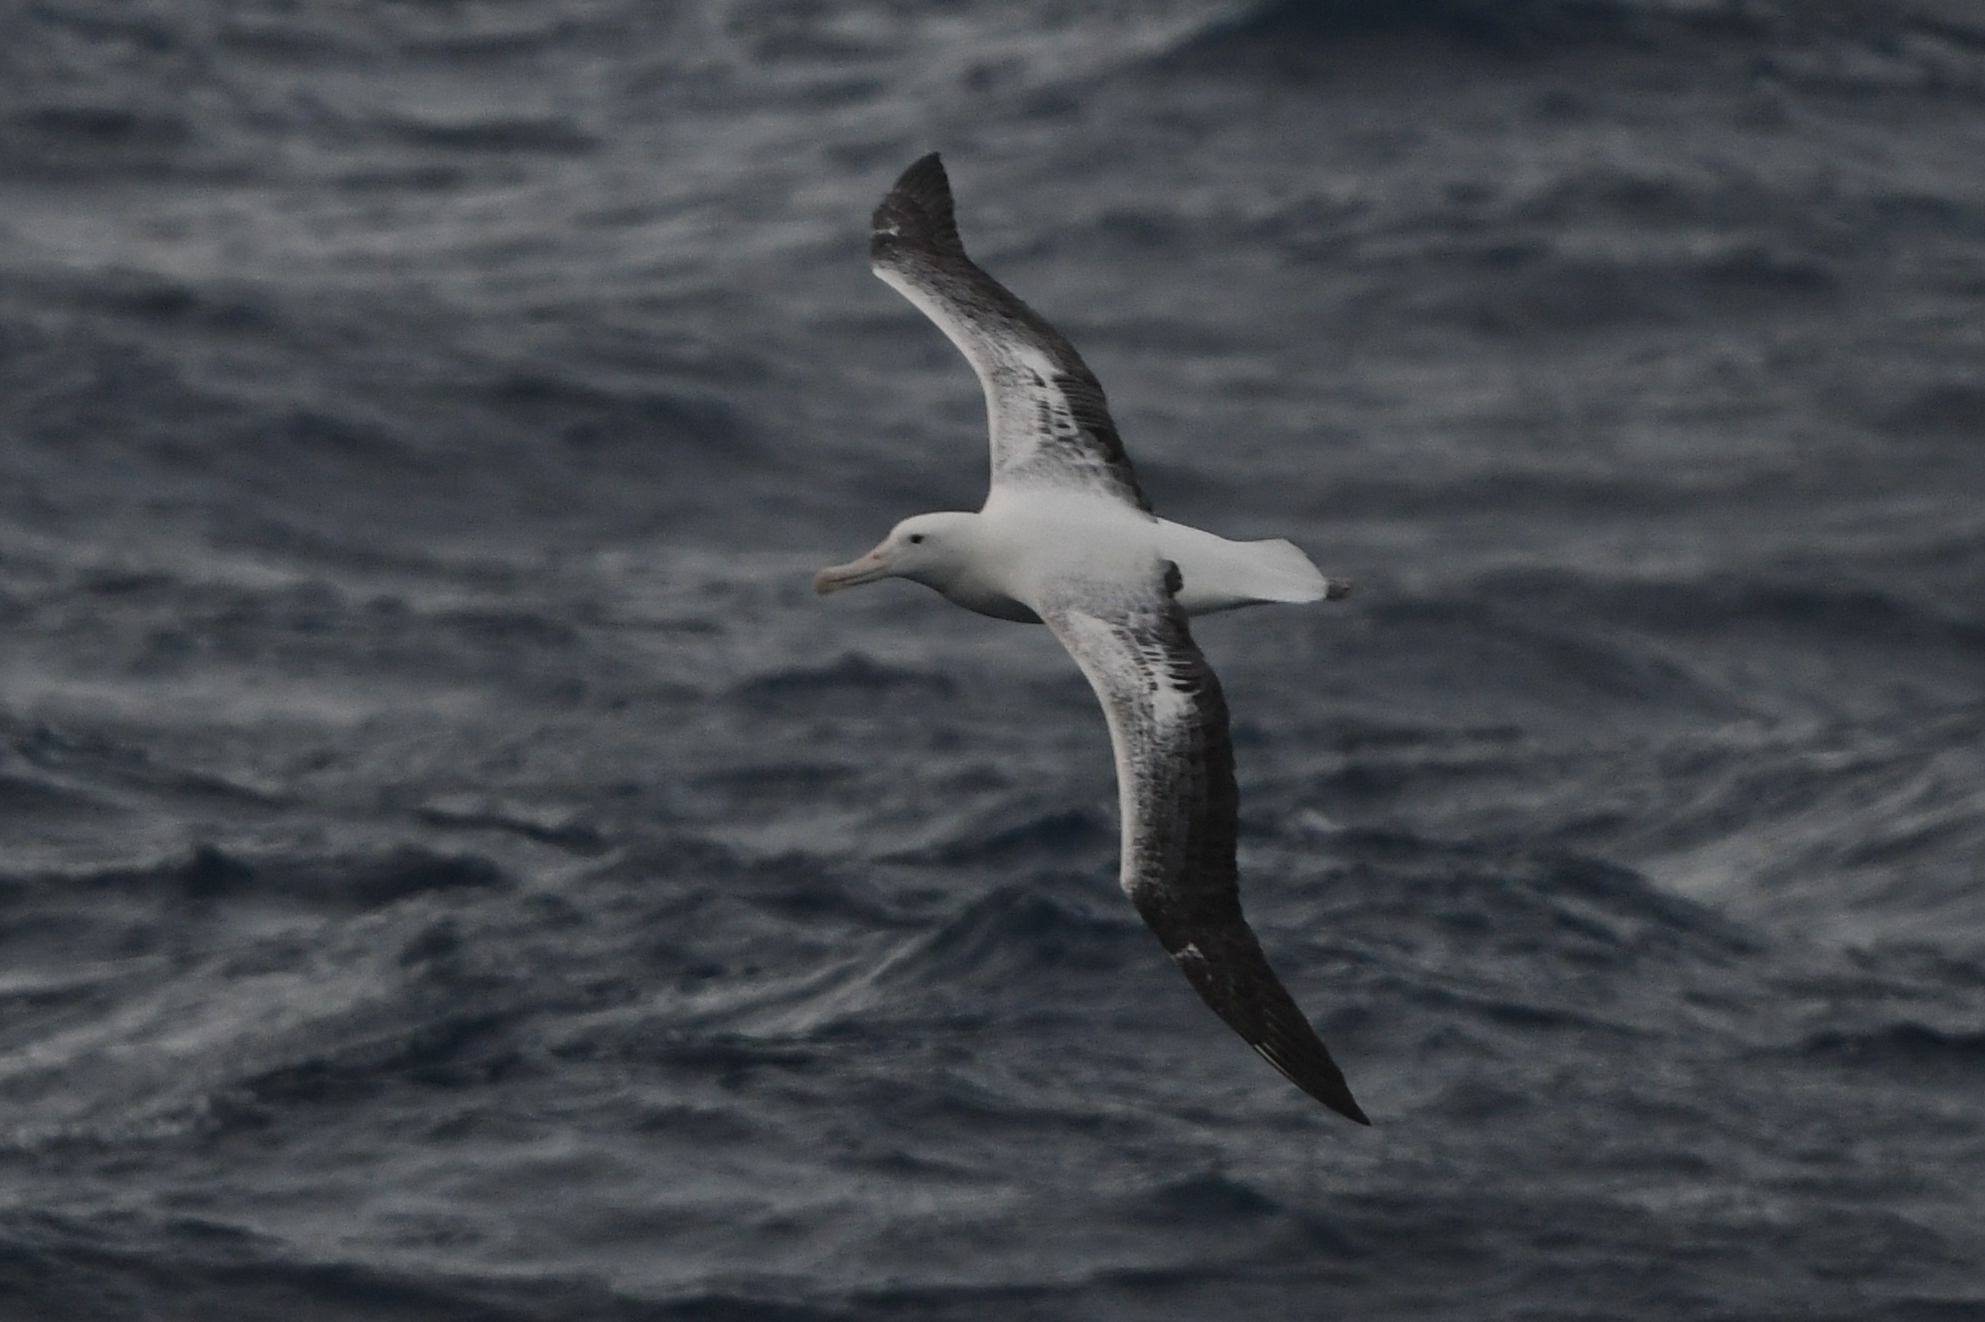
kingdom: Animalia
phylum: Chordata
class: Aves
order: Procellariiformes
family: Diomedeidae
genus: Diomedea
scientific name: Diomedea epomophora
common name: Southern royal albatross
